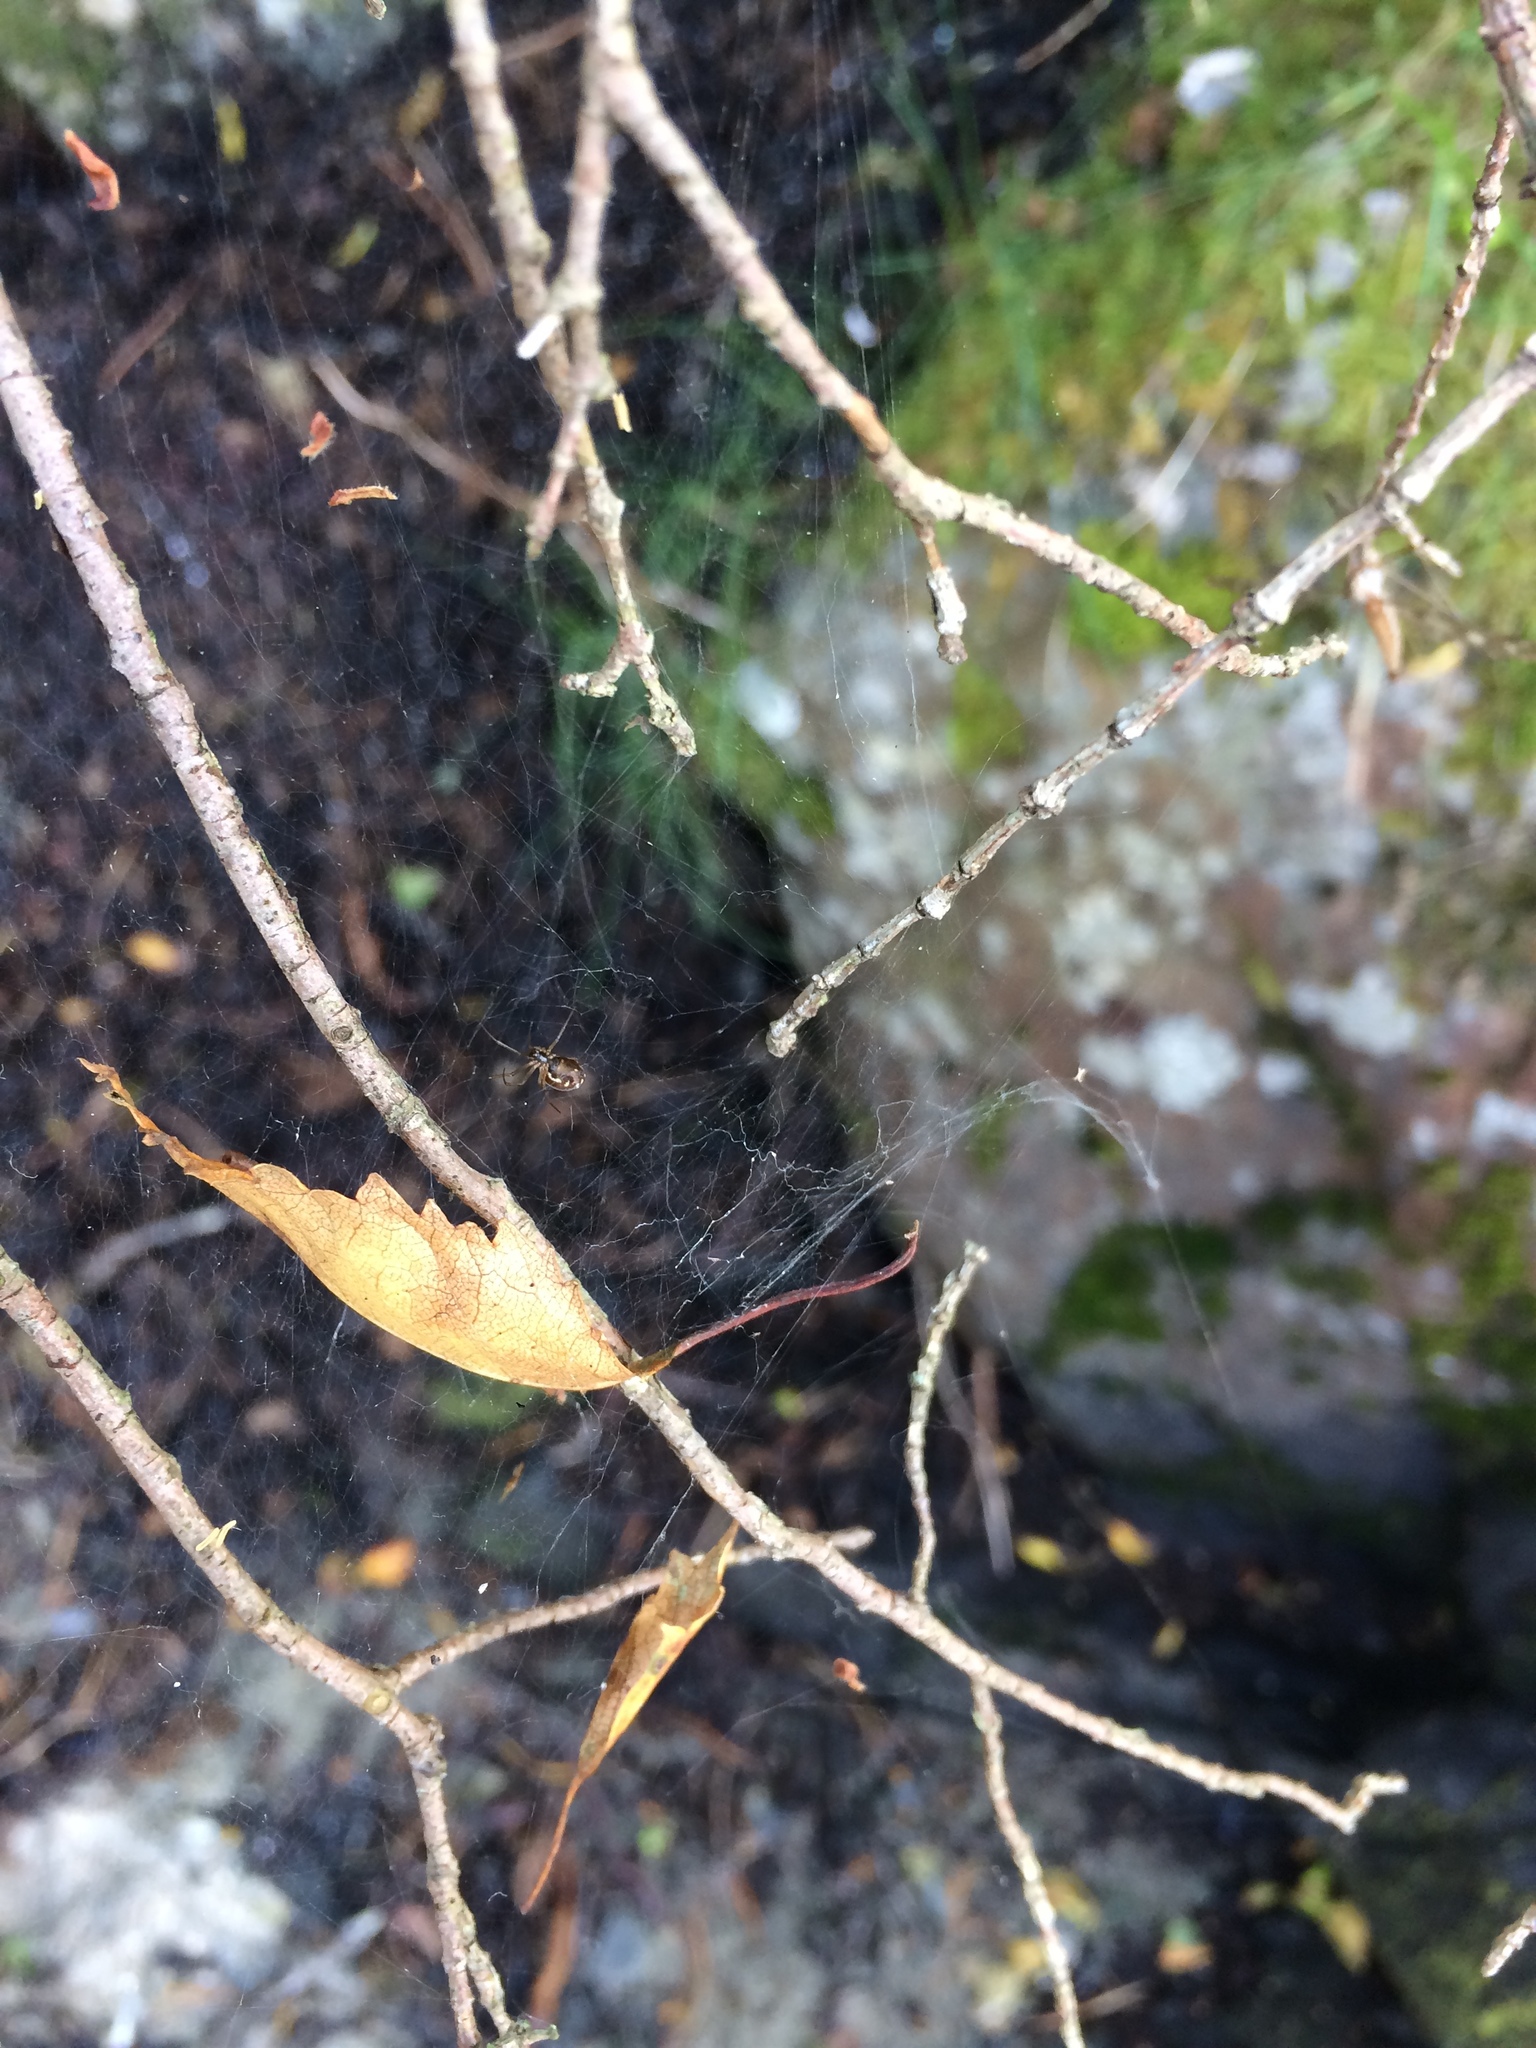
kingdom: Animalia
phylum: Arthropoda
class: Arachnida
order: Araneae
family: Linyphiidae
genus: Neriene
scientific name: Neriene peltata
